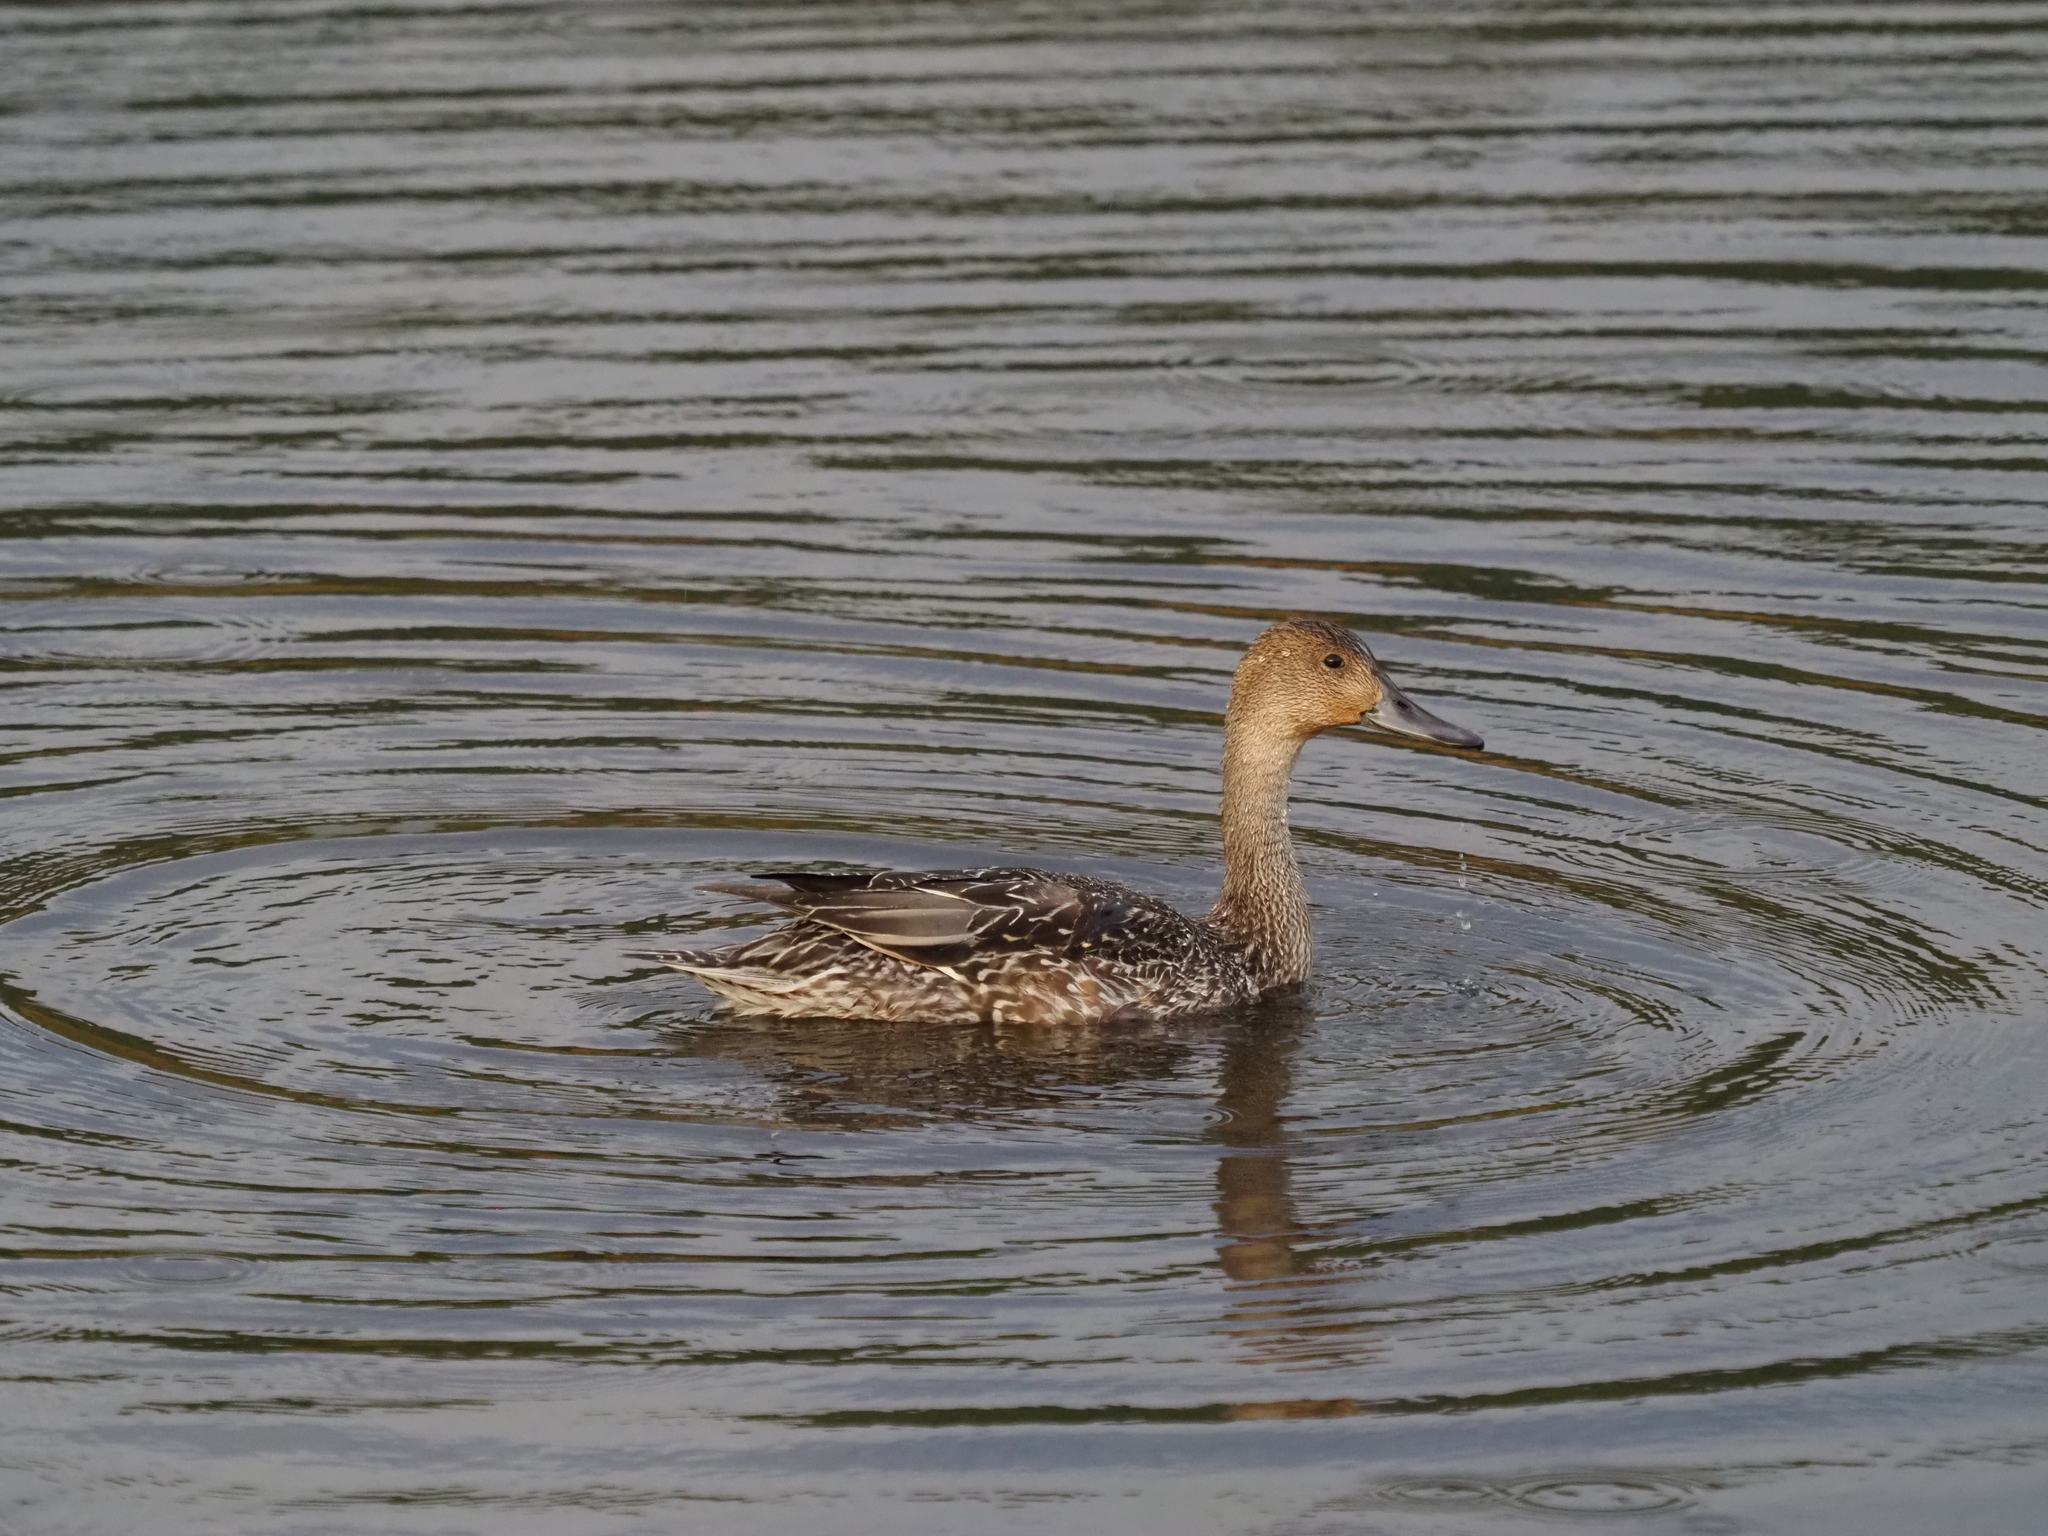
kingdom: Animalia
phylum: Chordata
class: Aves
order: Anseriformes
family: Anatidae
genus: Anas
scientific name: Anas acuta
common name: Northern pintail
